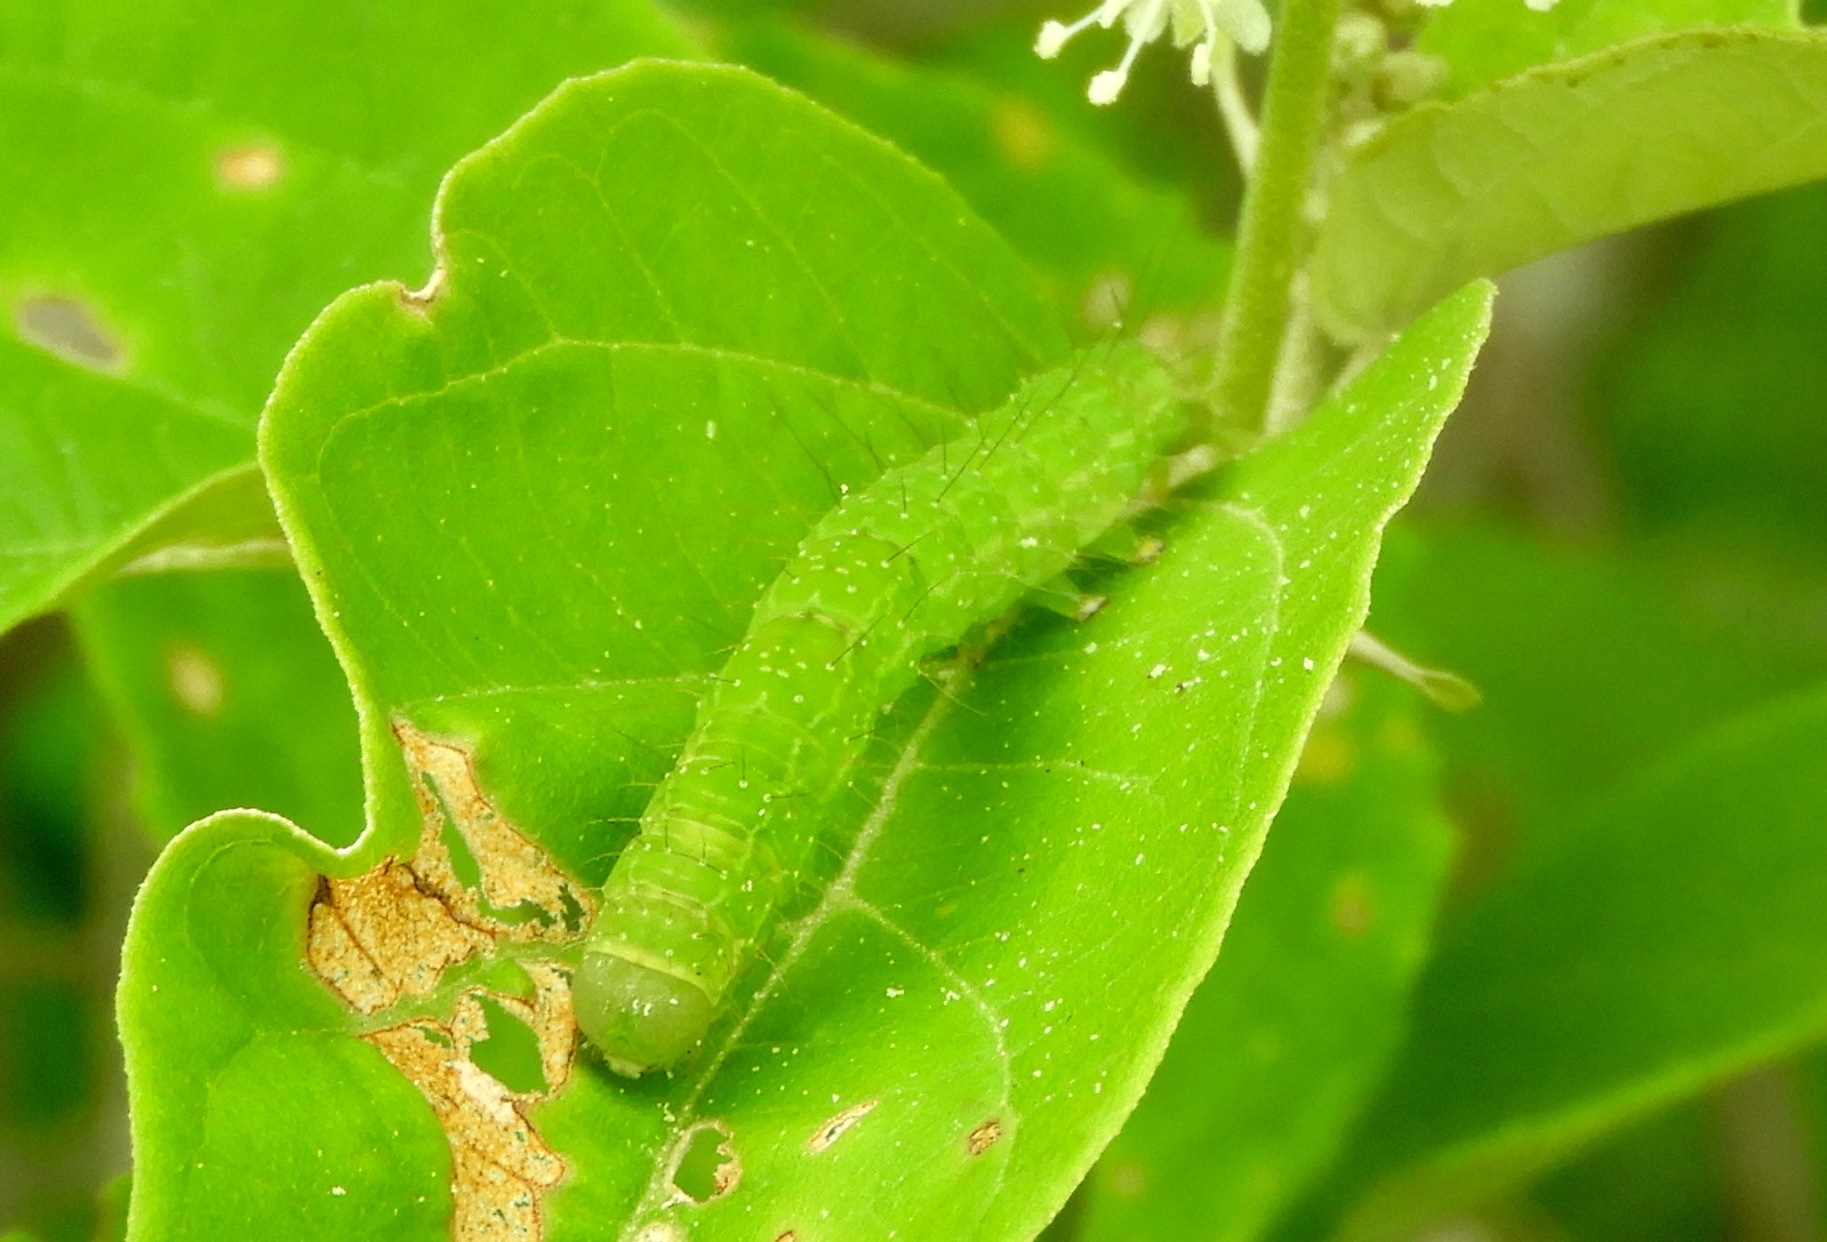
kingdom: Animalia
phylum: Arthropoda
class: Insecta
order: Lepidoptera
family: Noctuidae
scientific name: Noctuidae
